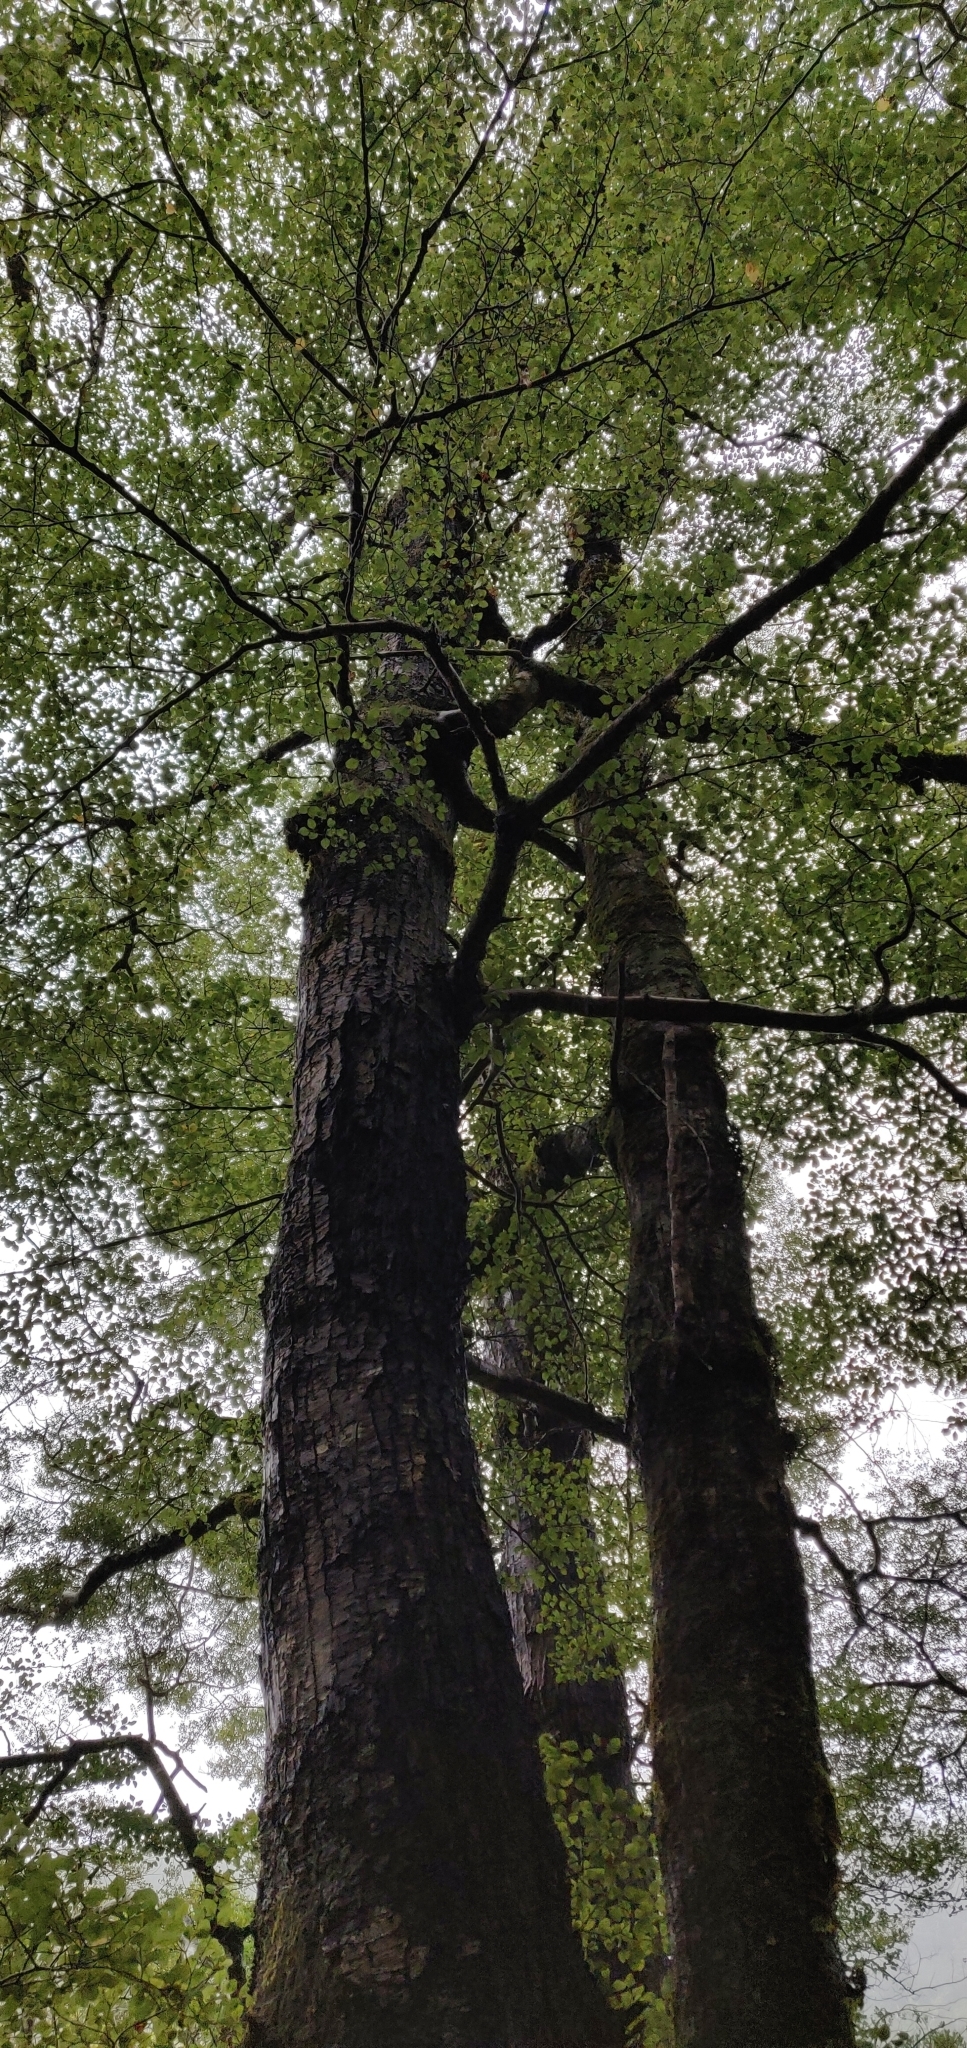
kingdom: Plantae
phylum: Tracheophyta
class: Magnoliopsida
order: Fagales
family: Nothofagaceae
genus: Nothofagus
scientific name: Nothofagus truncata
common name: Hard beech
